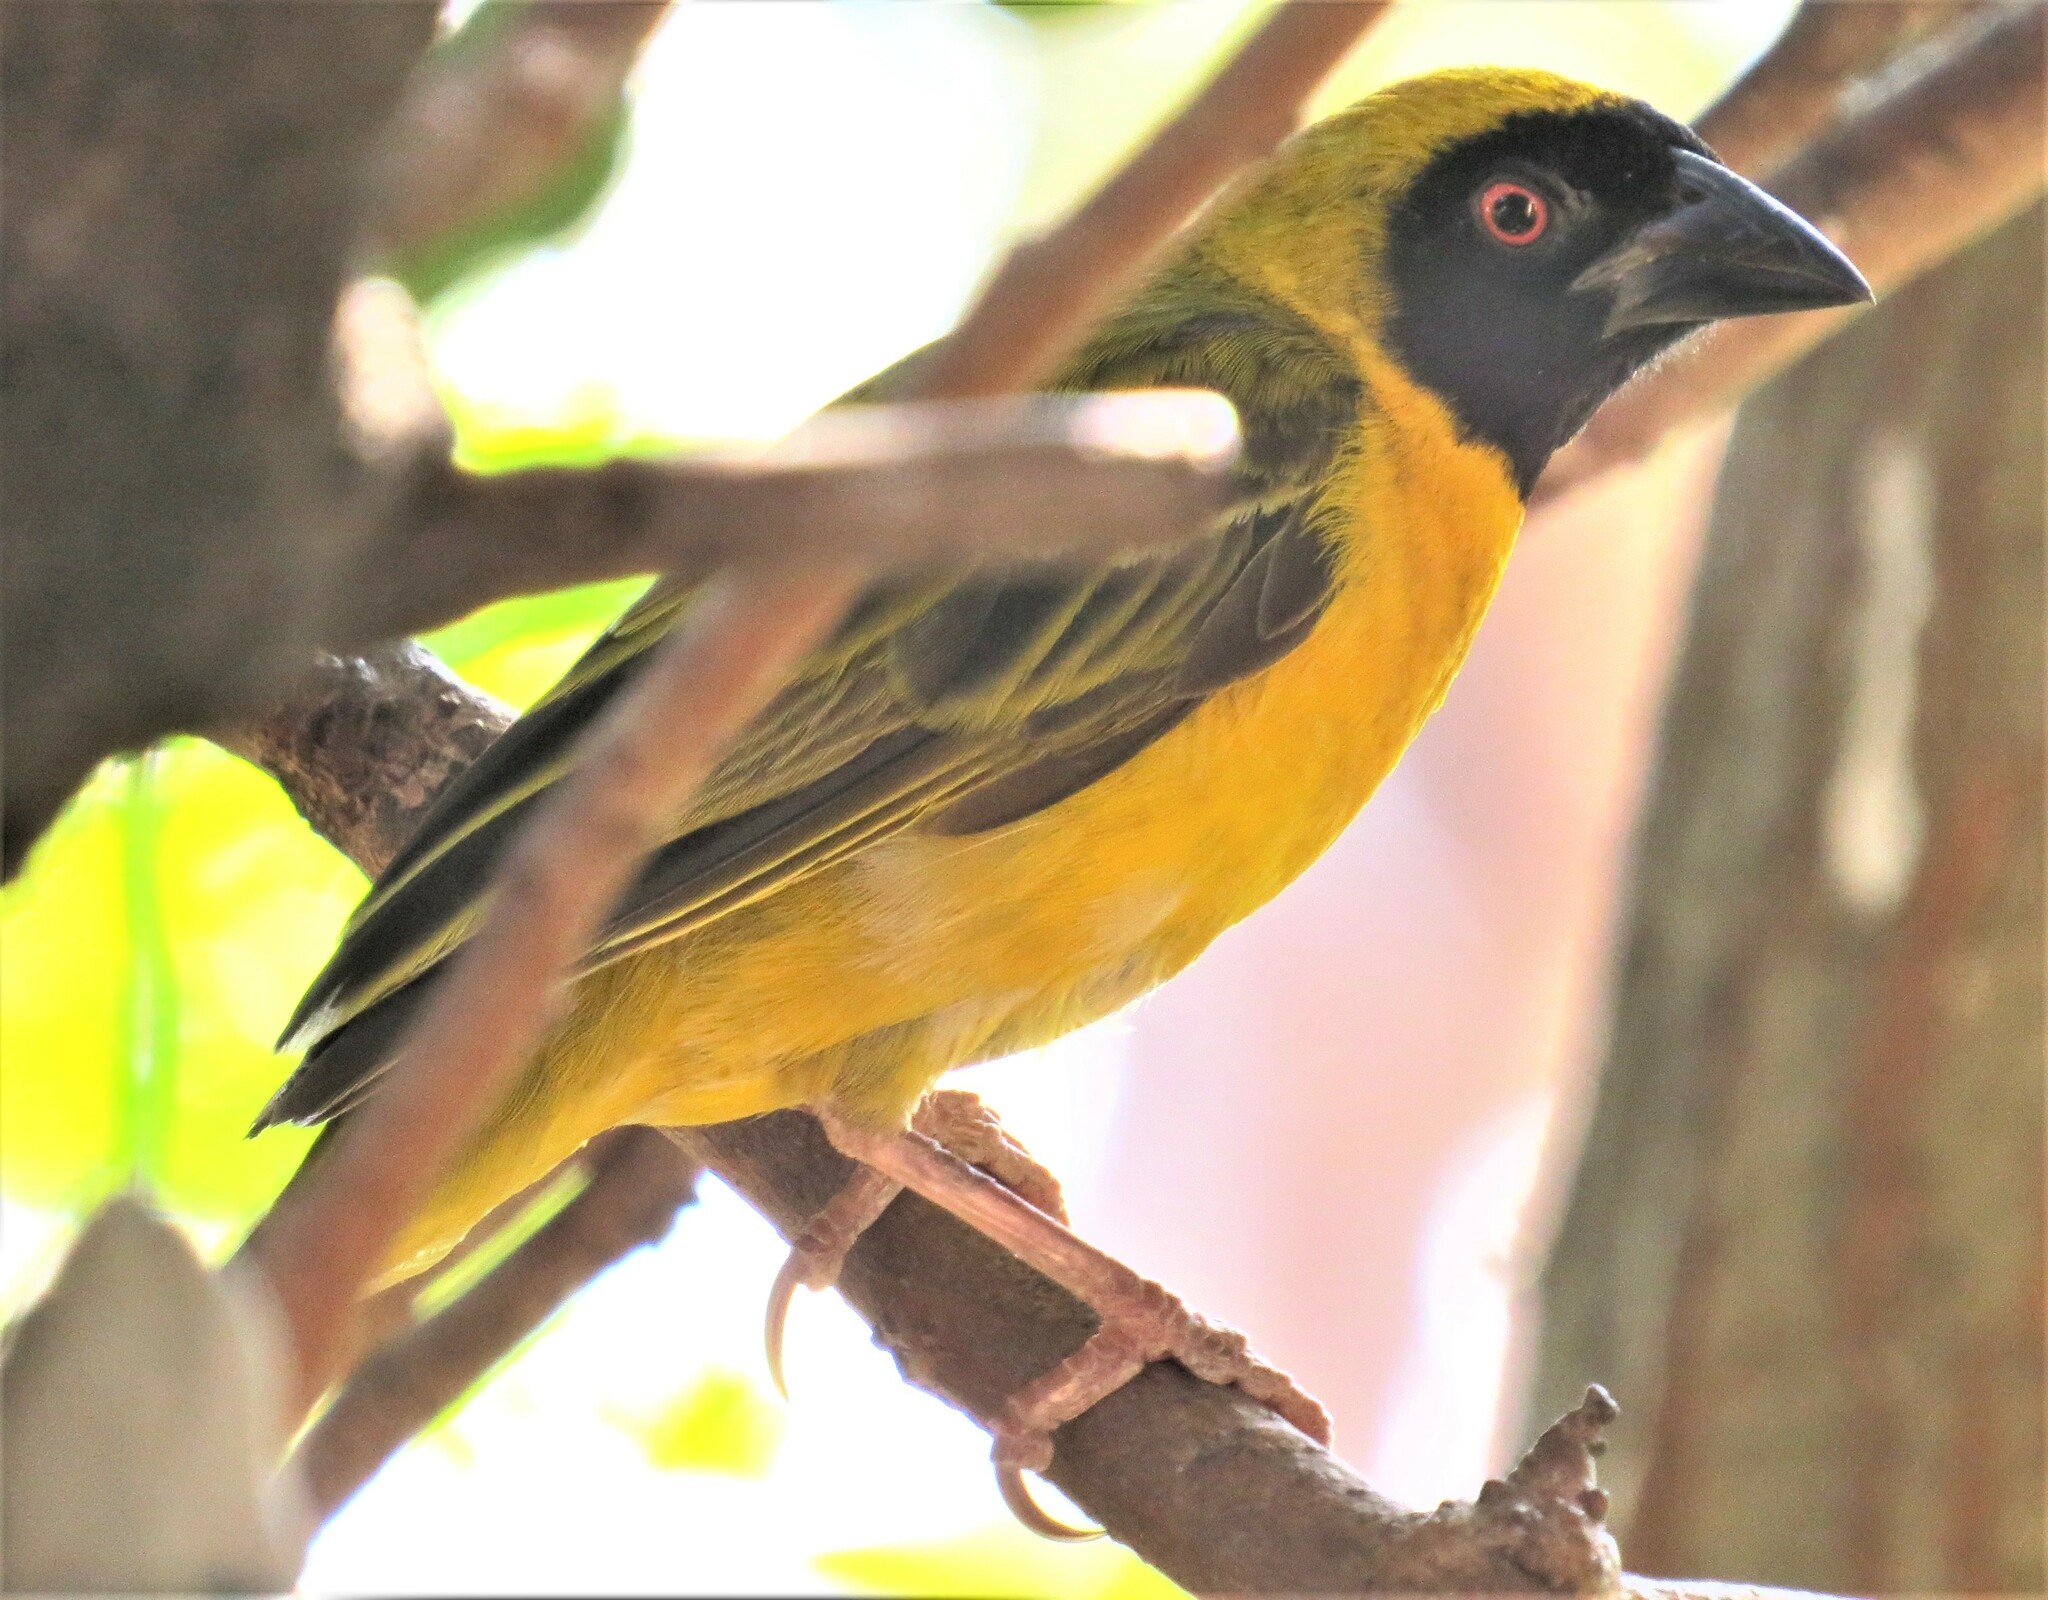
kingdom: Animalia
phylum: Chordata
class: Aves
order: Passeriformes
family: Ploceidae
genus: Ploceus
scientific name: Ploceus velatus
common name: Southern masked weaver
